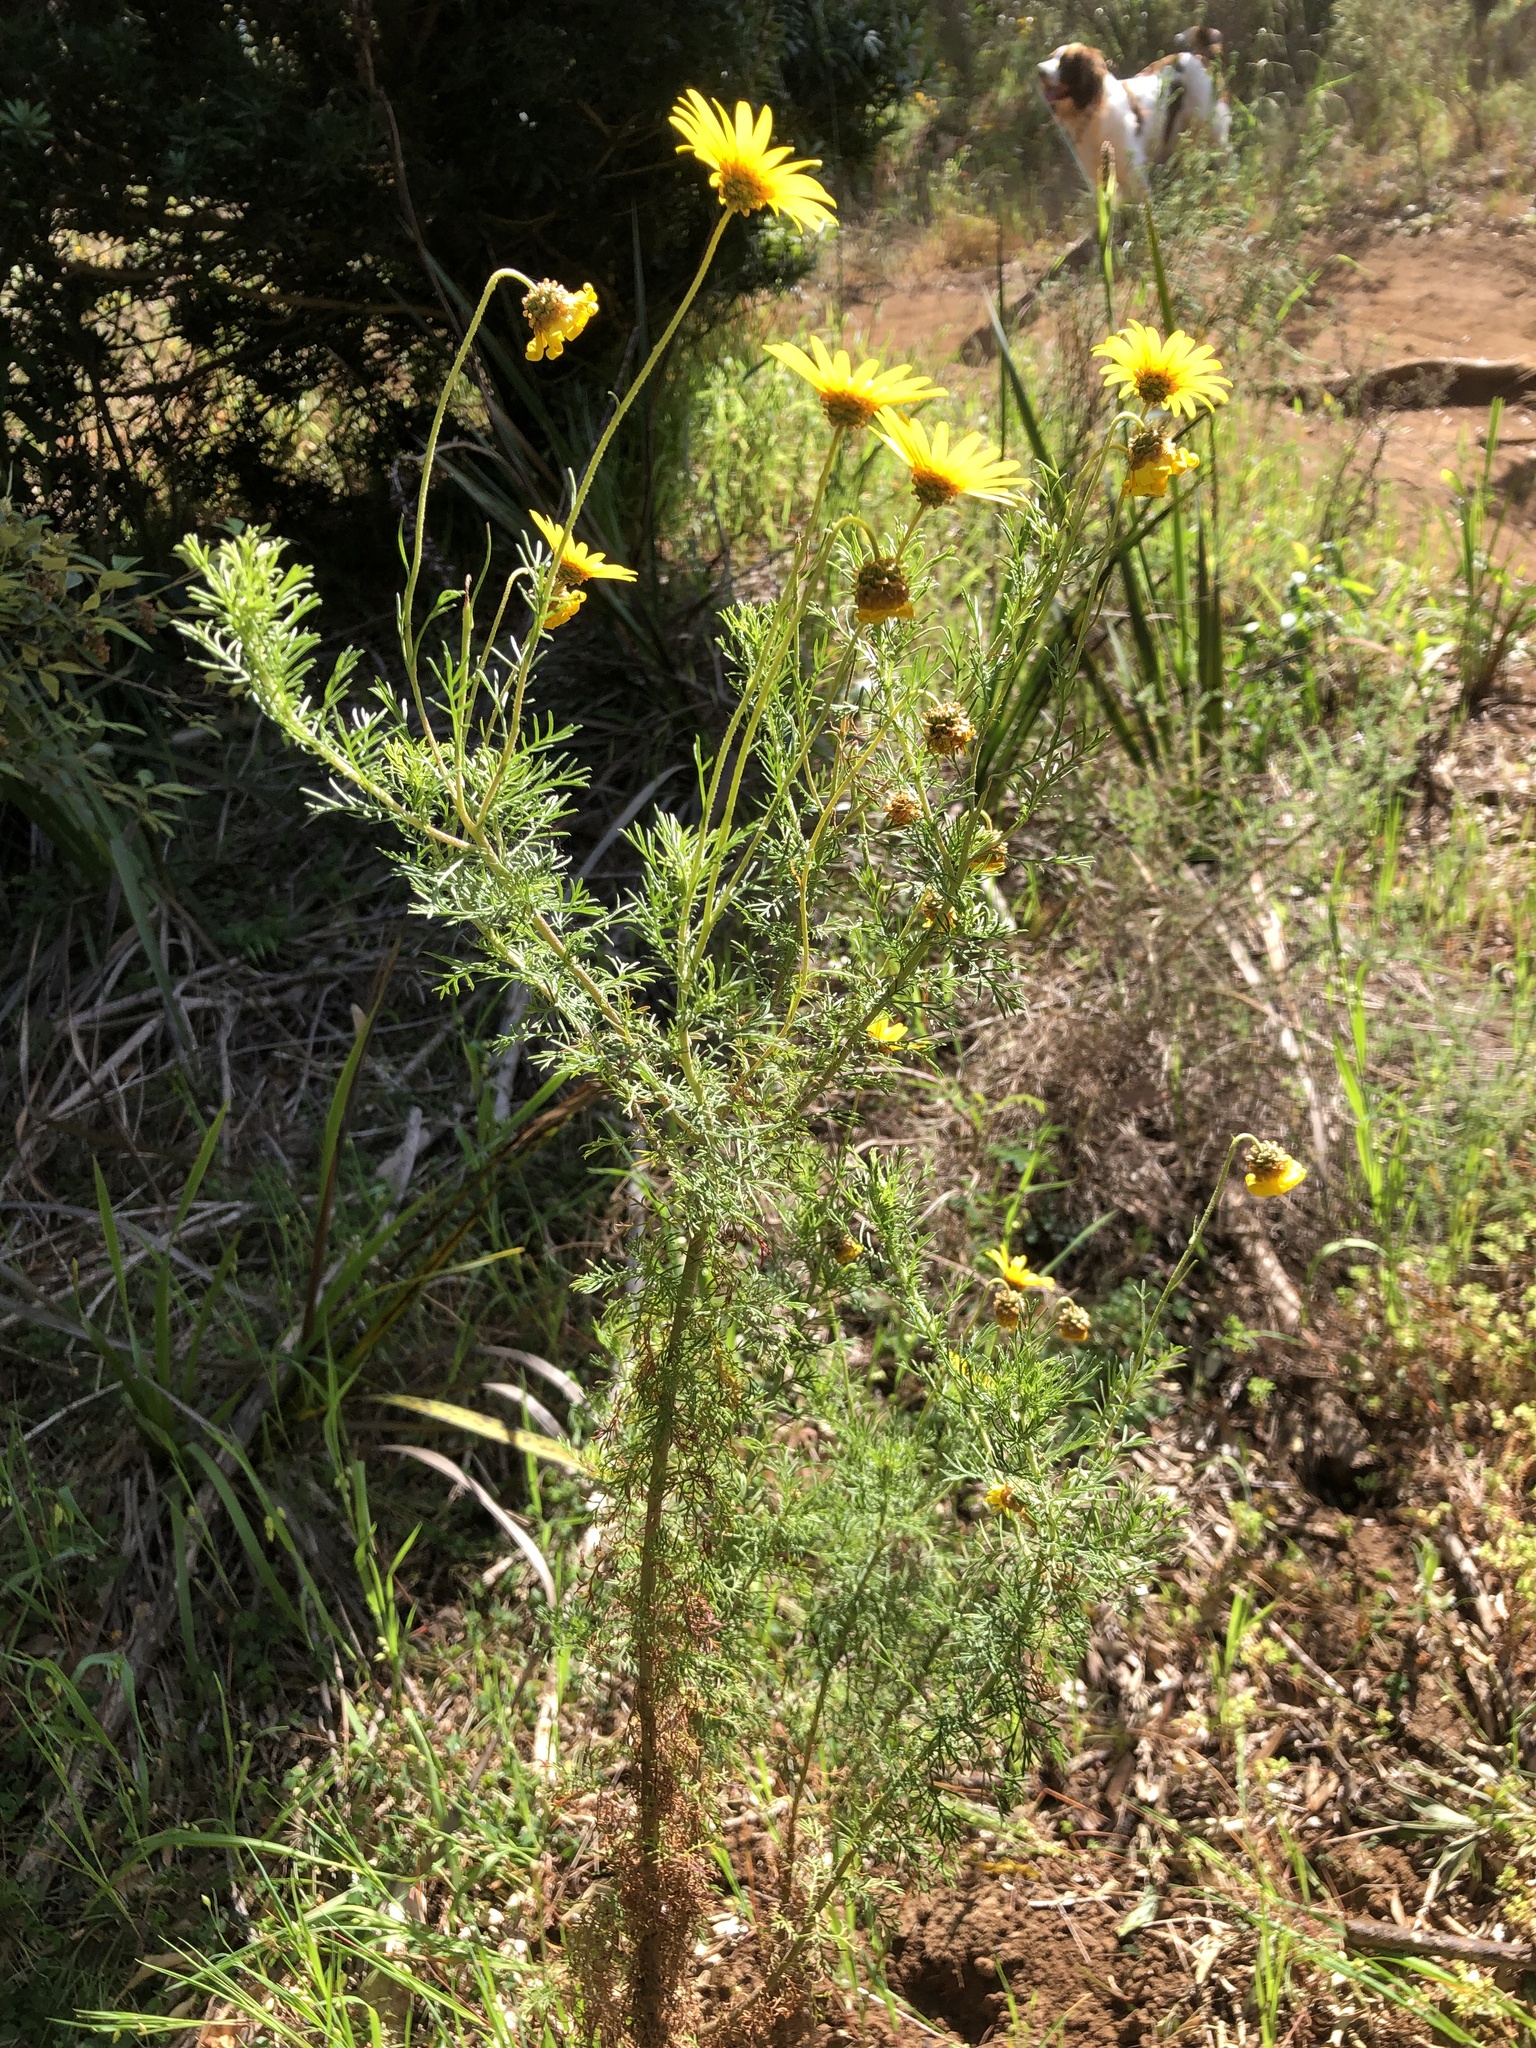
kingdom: Plantae
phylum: Tracheophyta
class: Magnoliopsida
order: Asterales
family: Asteraceae
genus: Ursinia
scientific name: Ursinia paleacea
